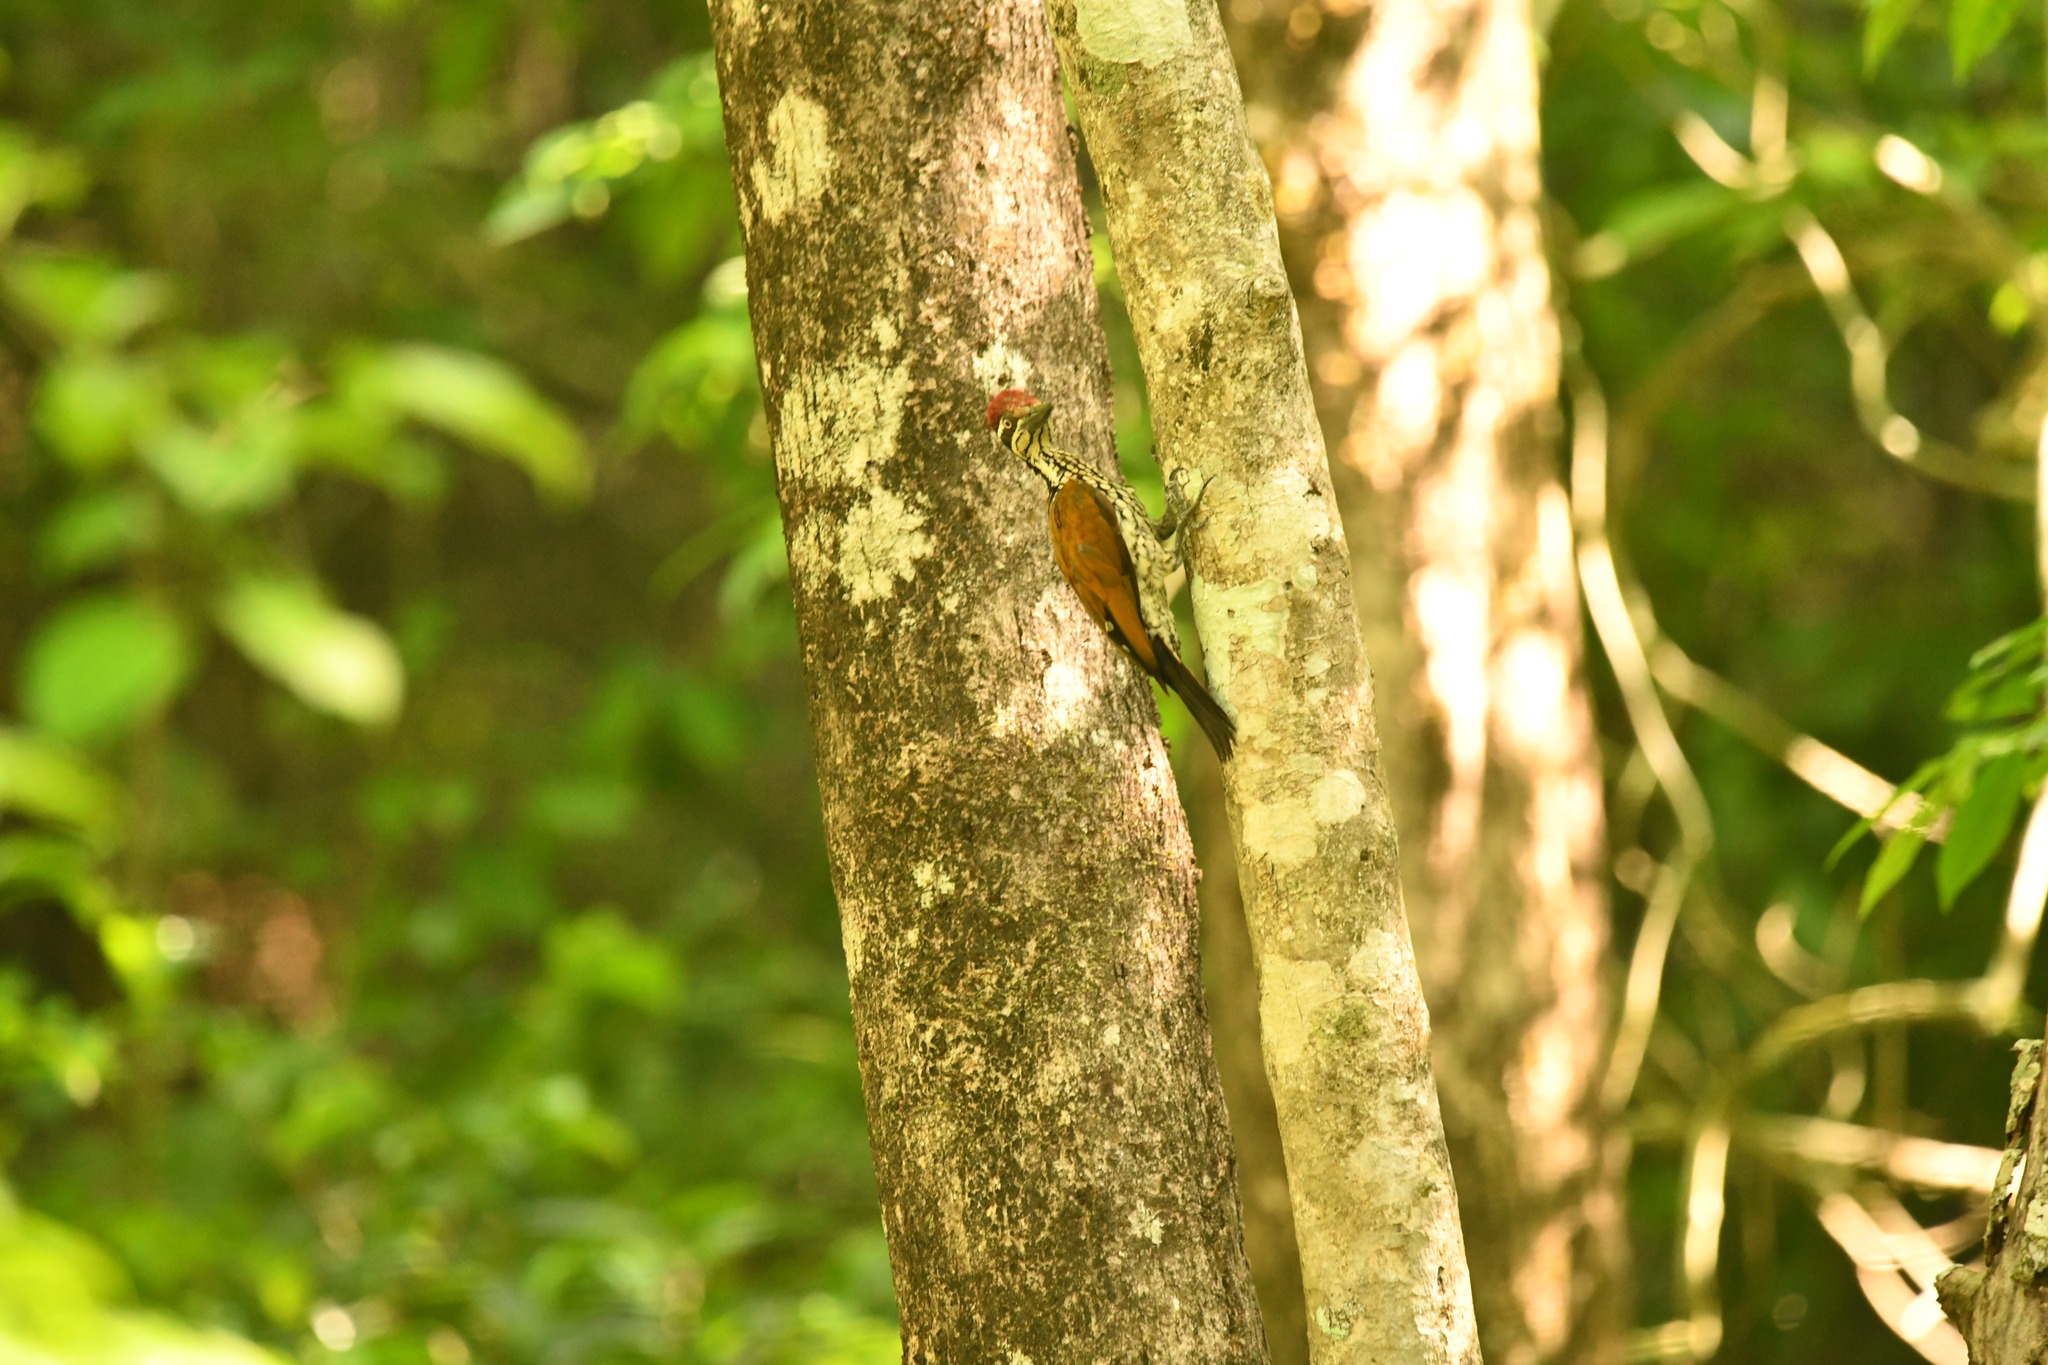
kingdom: Animalia
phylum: Chordata
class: Aves
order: Piciformes
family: Picidae
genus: Chrysocolaptes
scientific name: Chrysocolaptes socialis
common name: Malabar flameback
